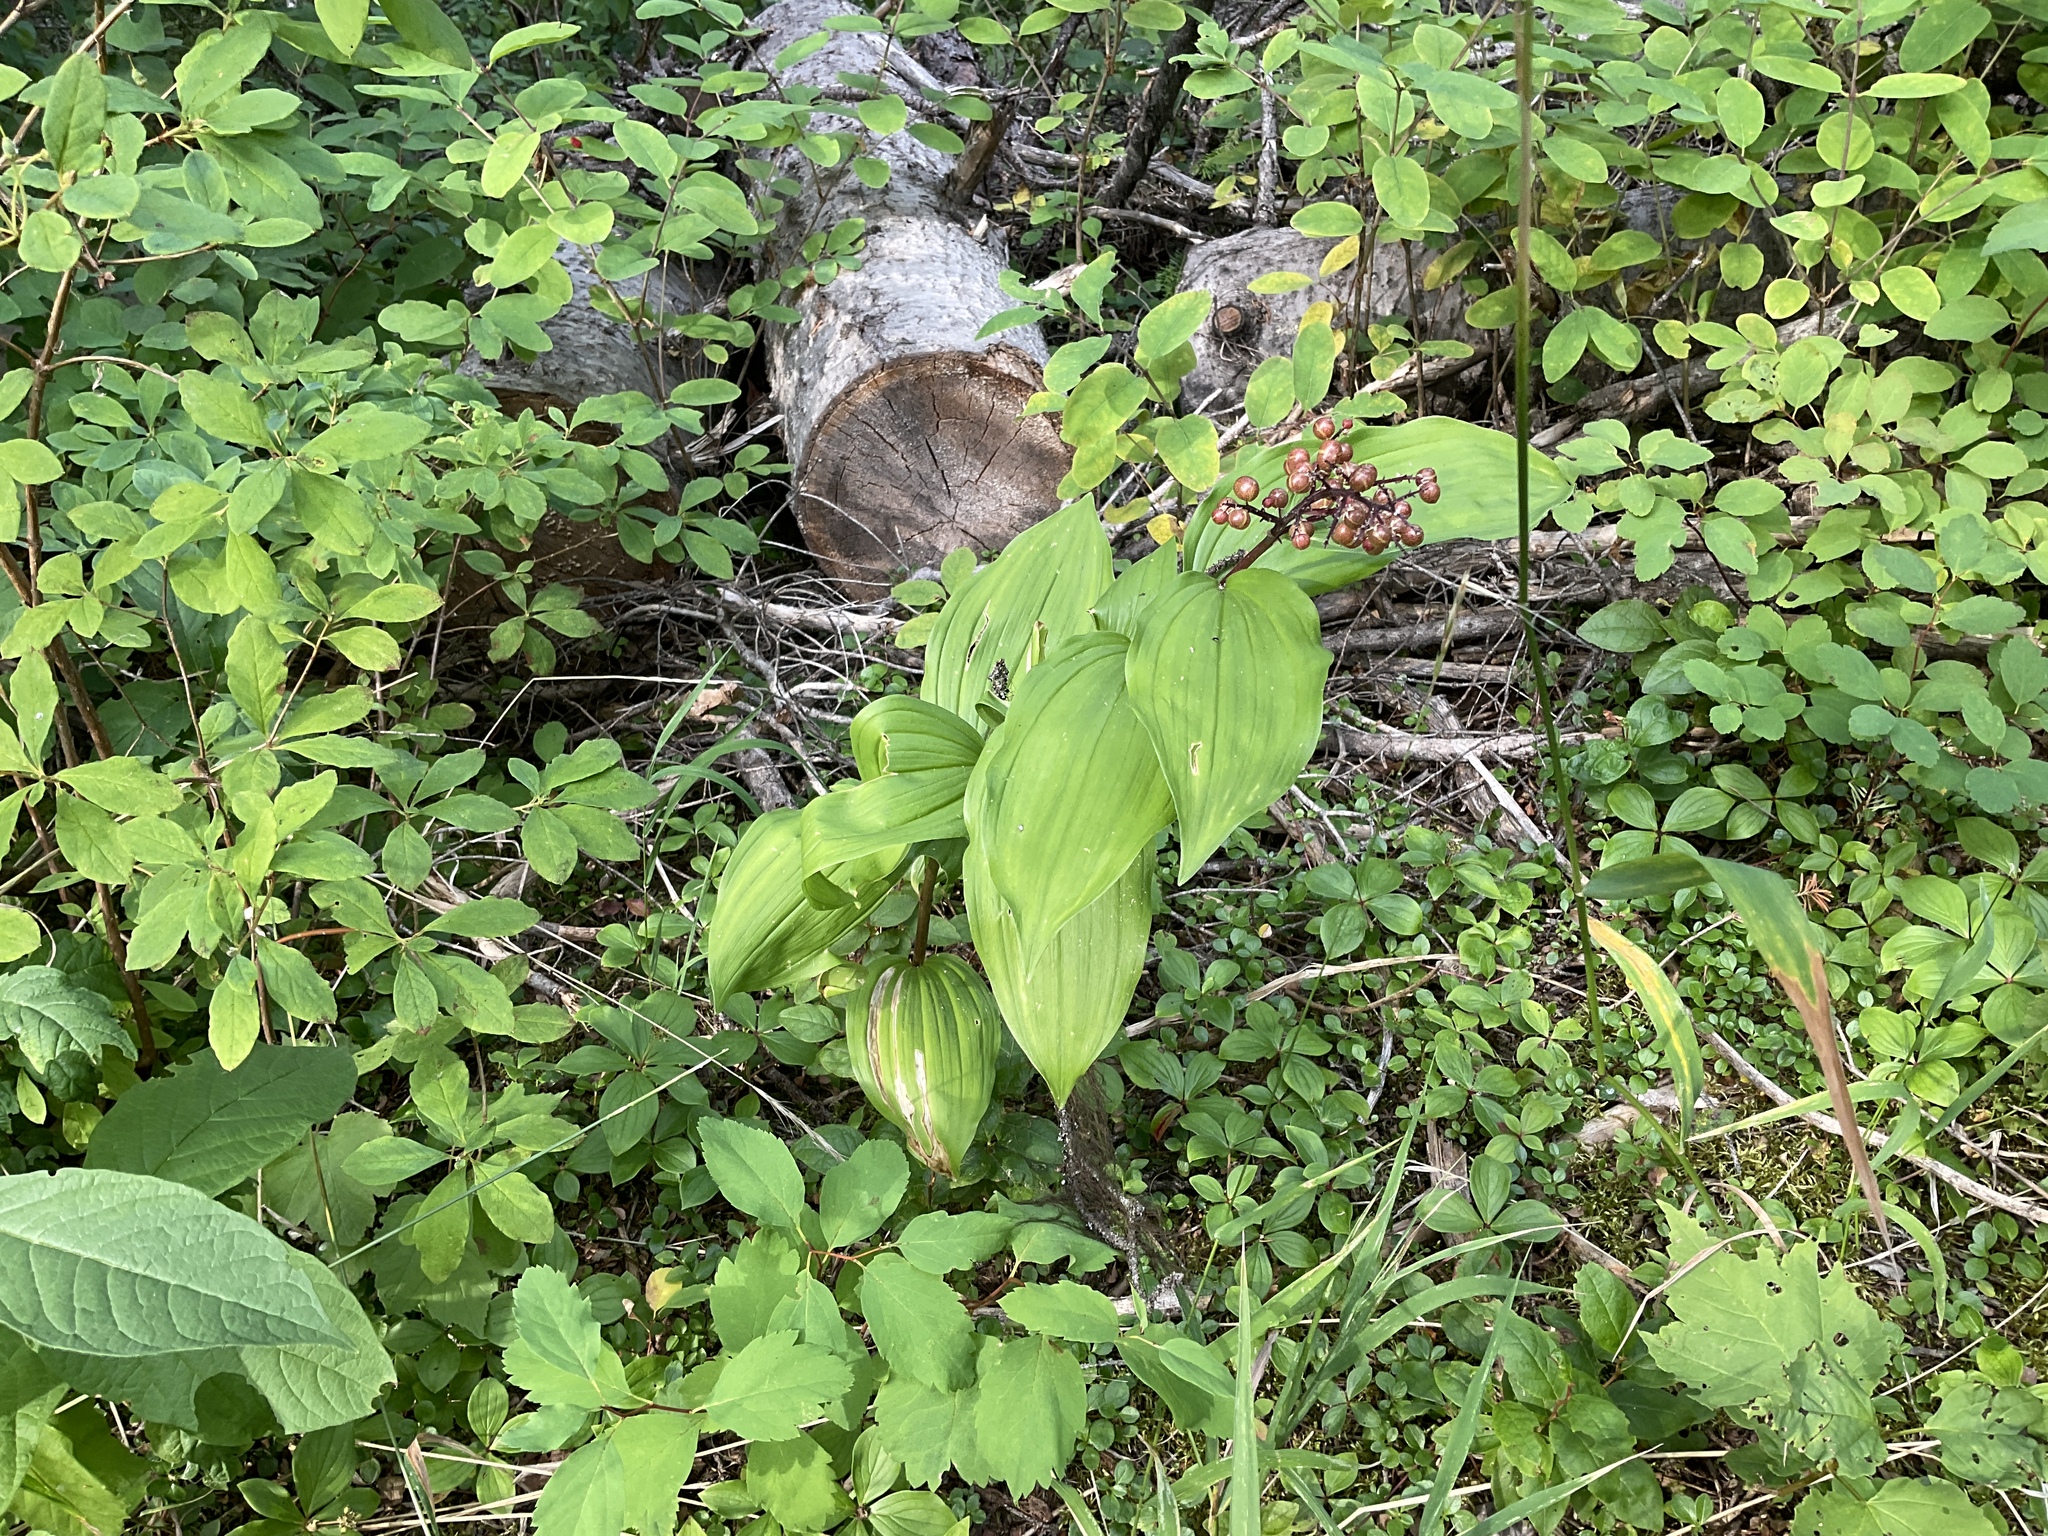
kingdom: Plantae
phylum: Tracheophyta
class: Liliopsida
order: Asparagales
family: Asparagaceae
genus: Maianthemum
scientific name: Maianthemum racemosum
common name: False spikenard
